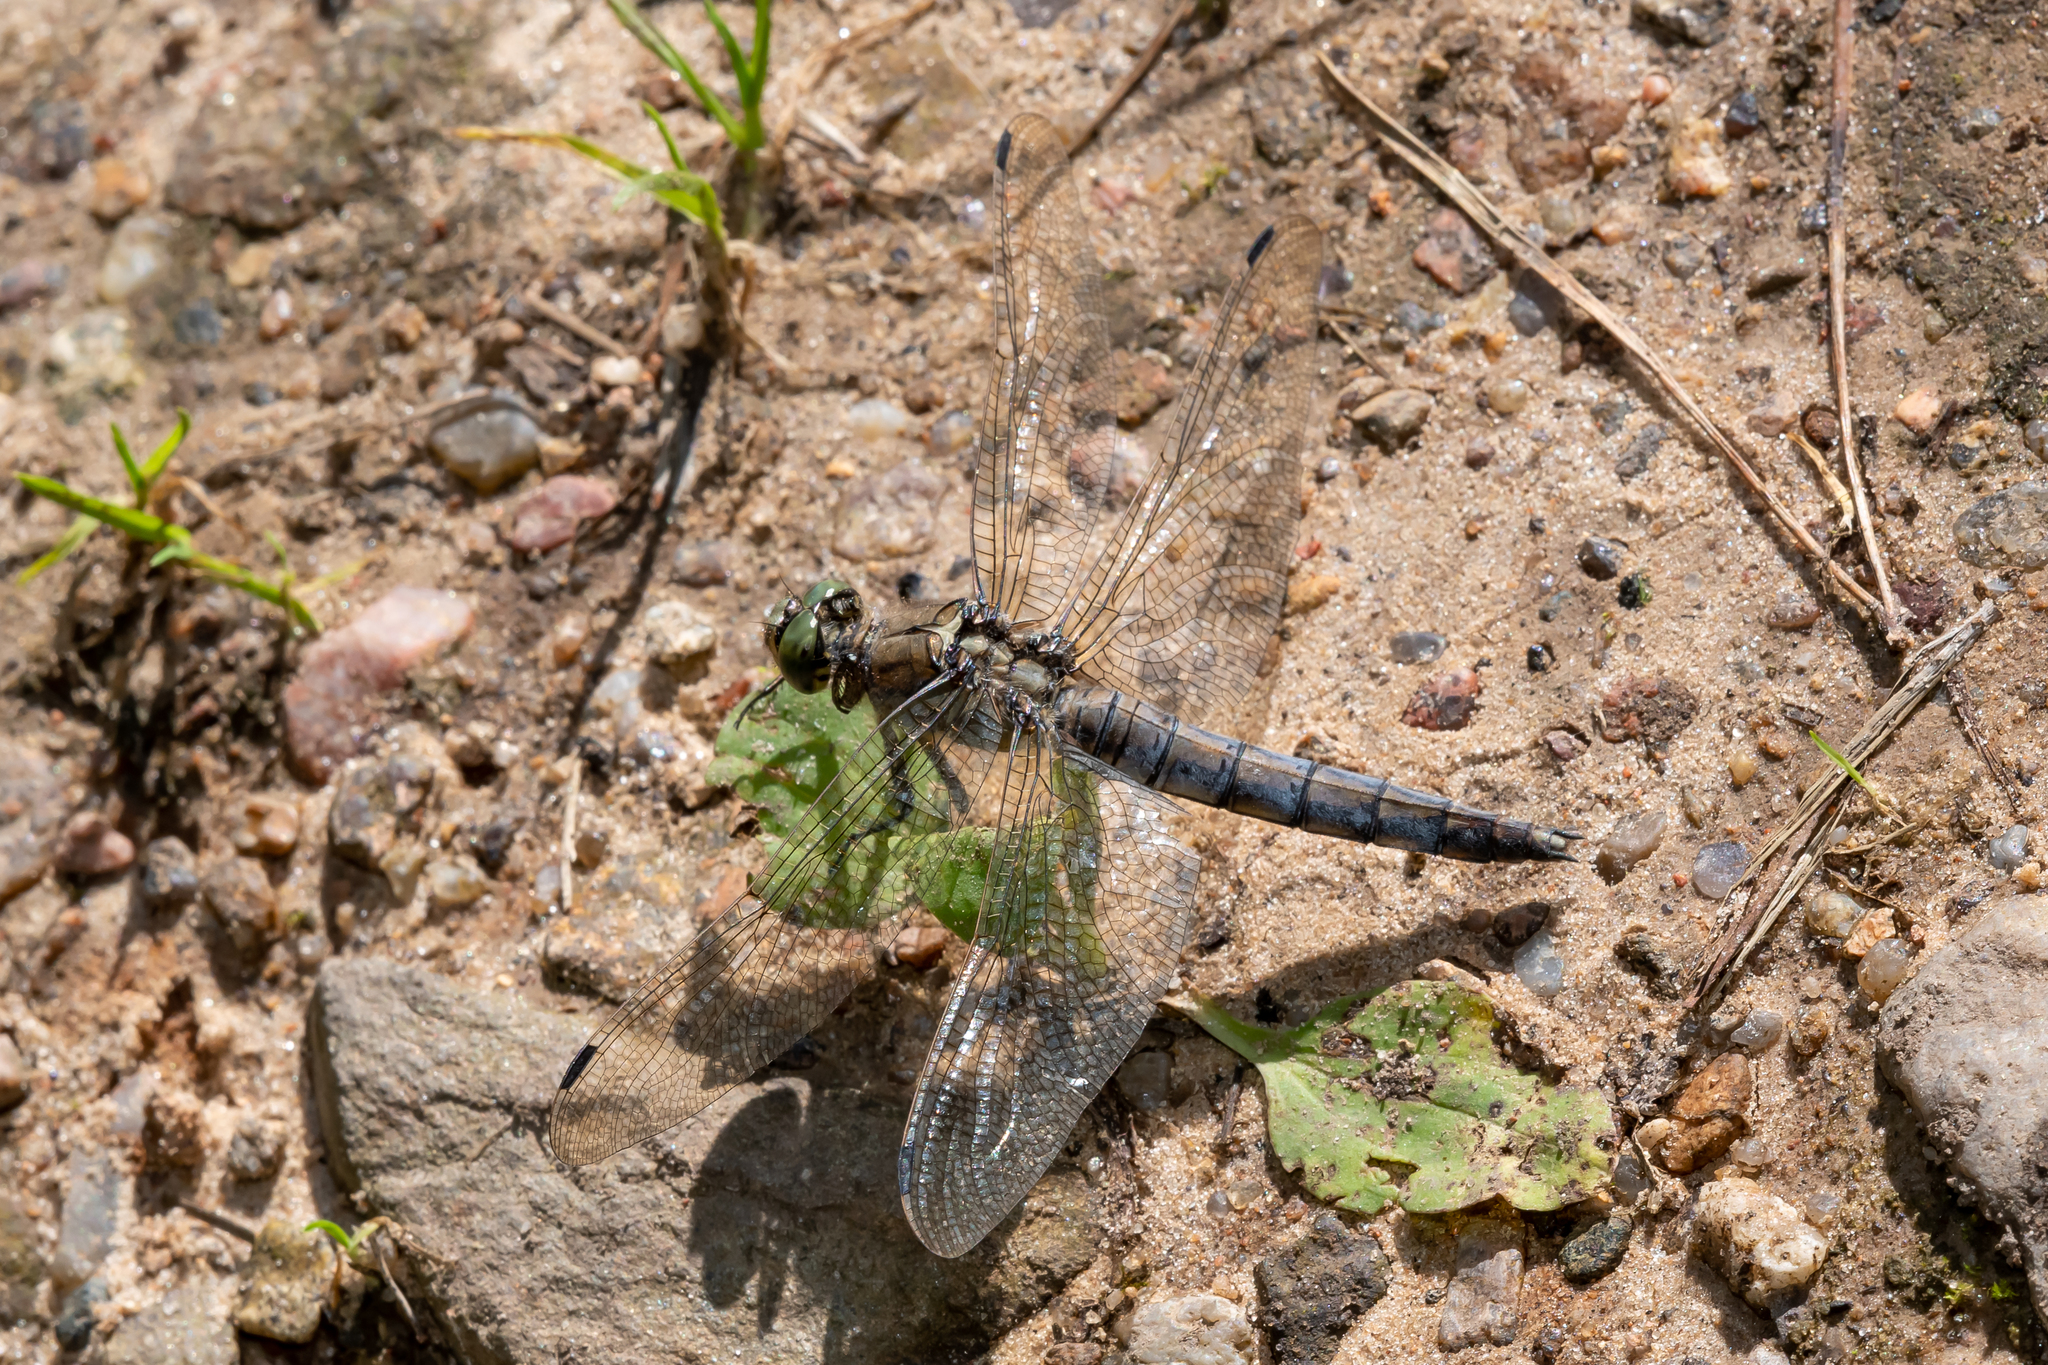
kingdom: Animalia
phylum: Arthropoda
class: Insecta
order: Odonata
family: Libellulidae
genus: Orthetrum
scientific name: Orthetrum cancellatum
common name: Black-tailed skimmer
